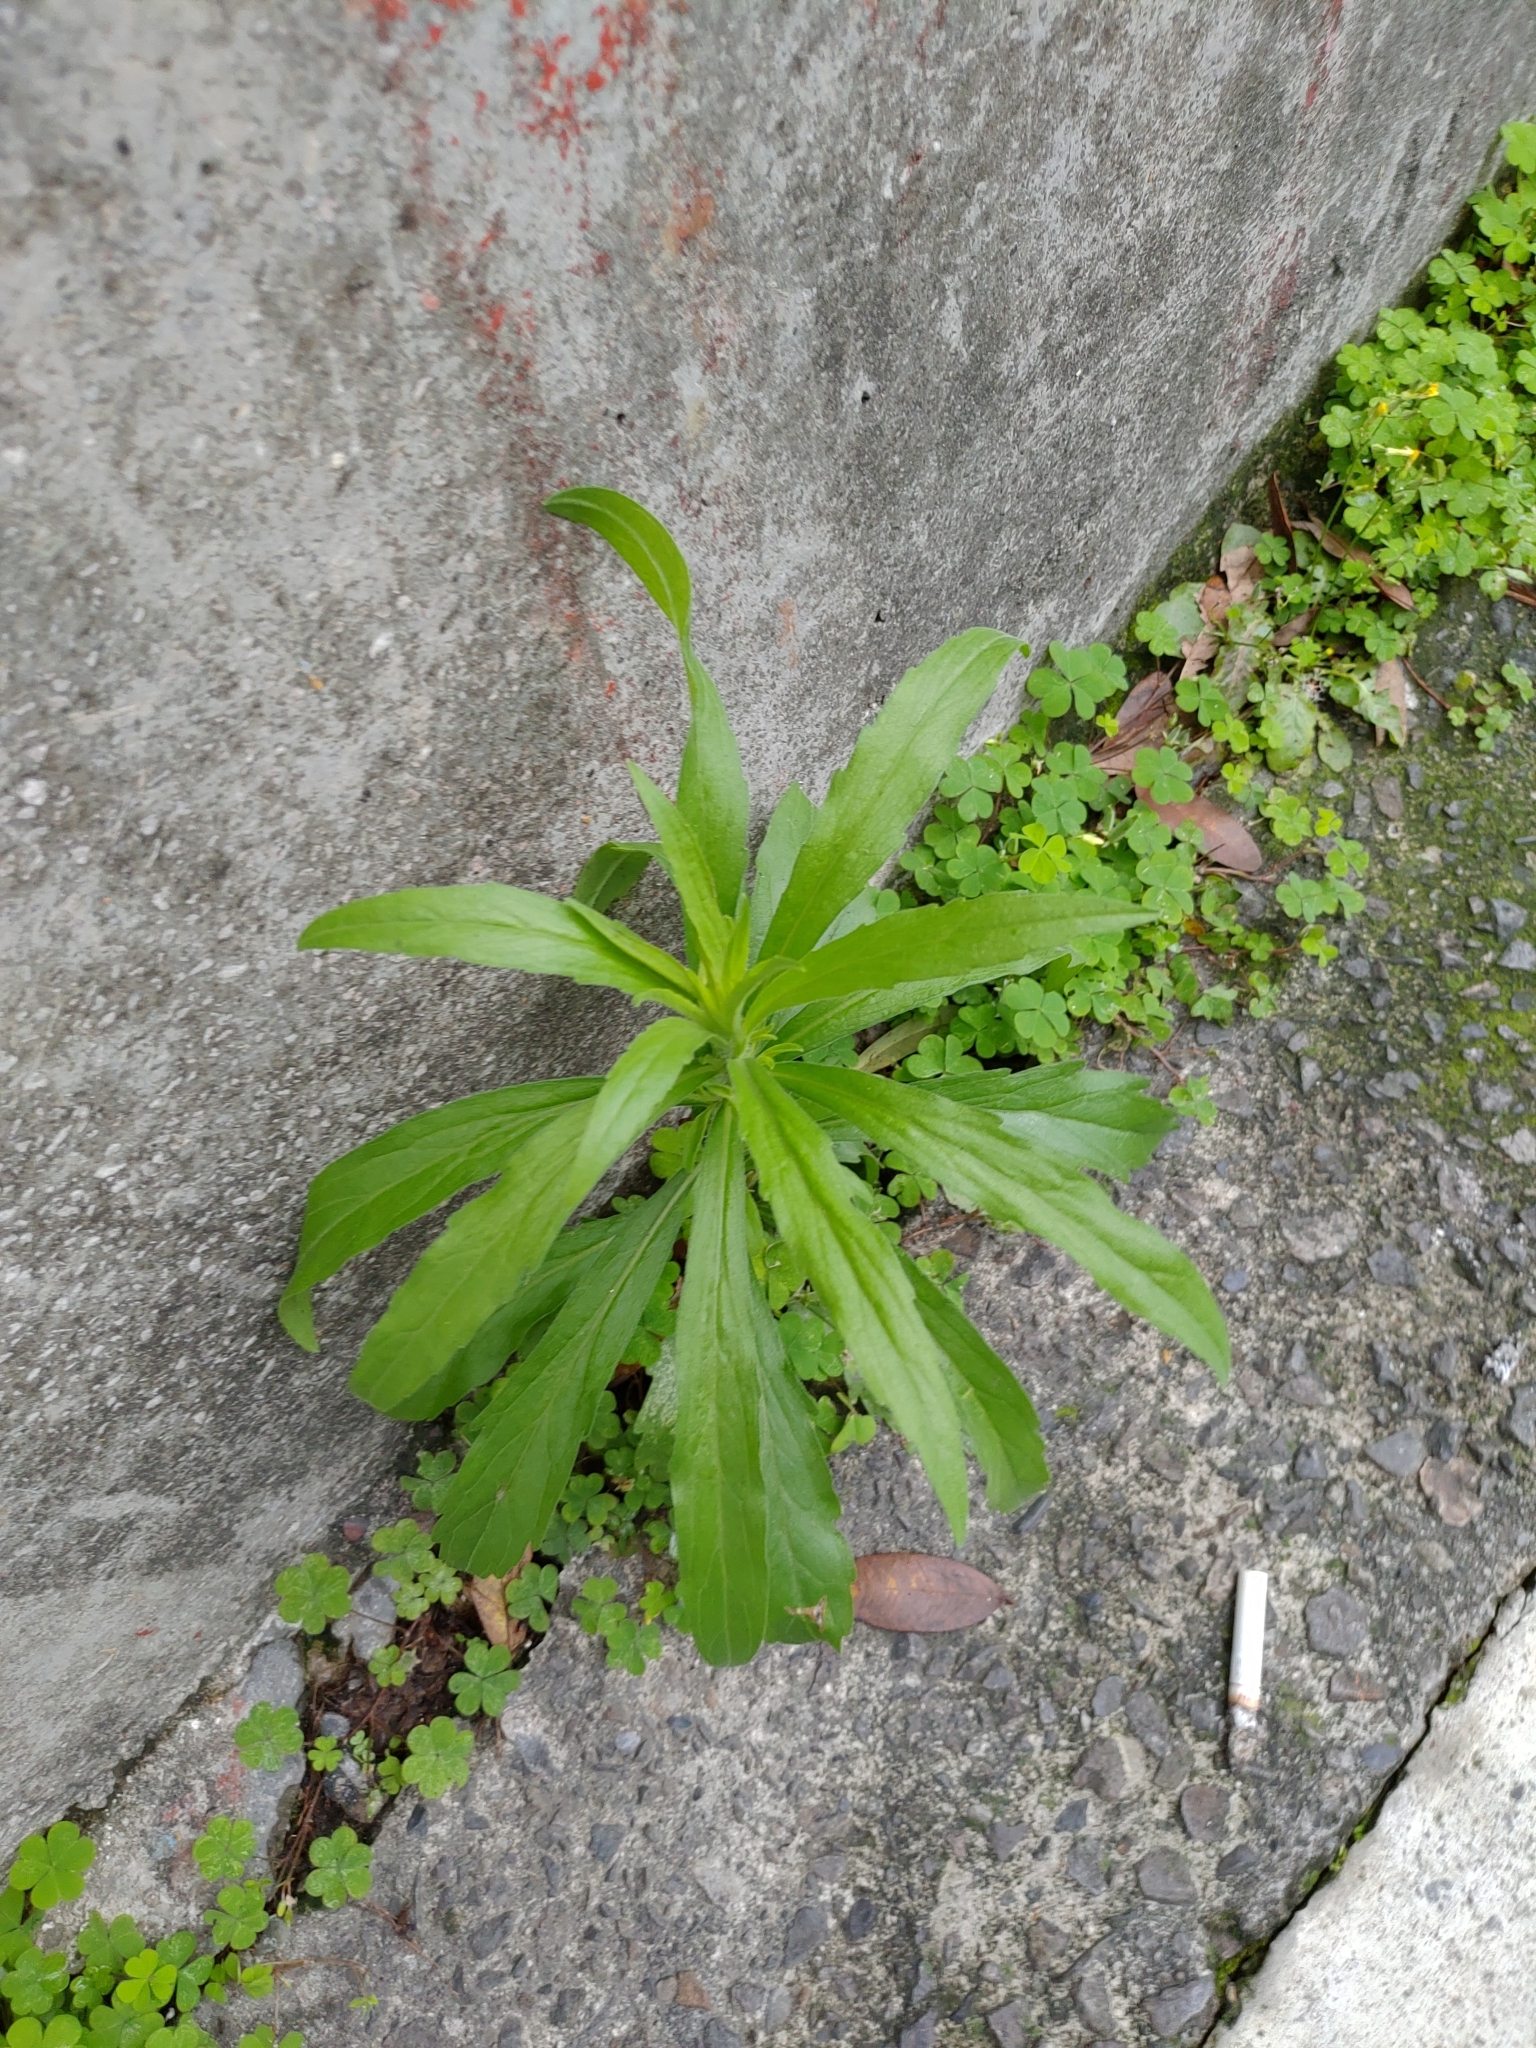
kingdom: Plantae
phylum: Tracheophyta
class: Magnoliopsida
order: Asterales
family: Asteraceae
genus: Erigeron
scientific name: Erigeron sumatrensis
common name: Daisy
